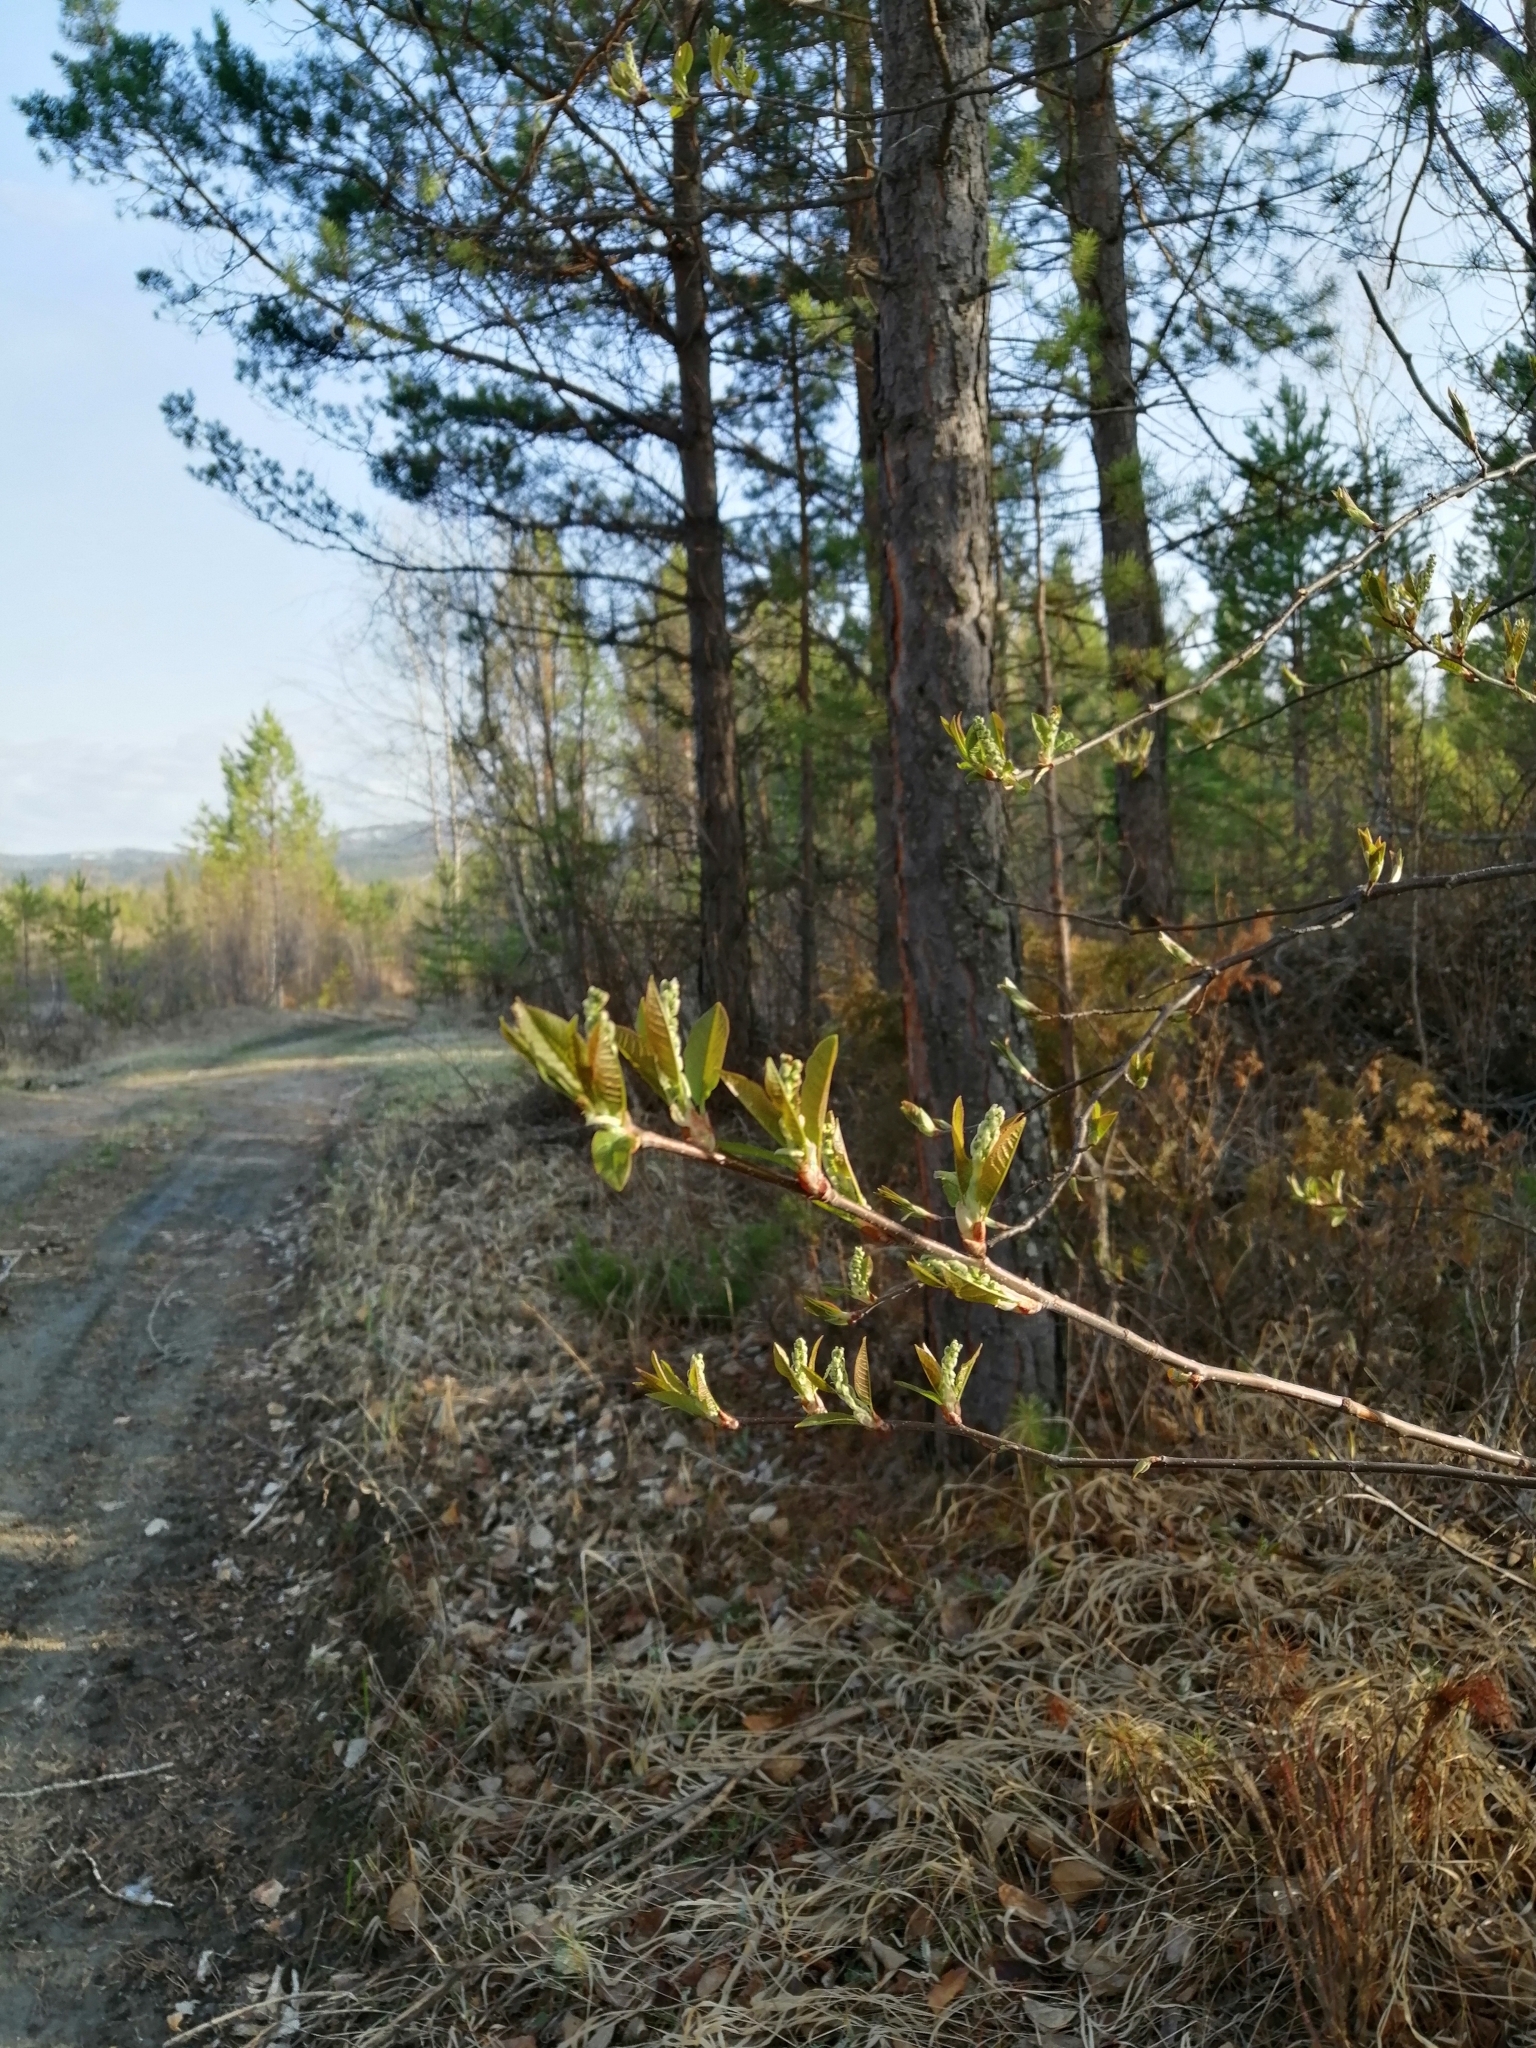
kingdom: Plantae
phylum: Tracheophyta
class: Magnoliopsida
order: Rosales
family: Rosaceae
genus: Prunus
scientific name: Prunus padus
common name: Bird cherry
